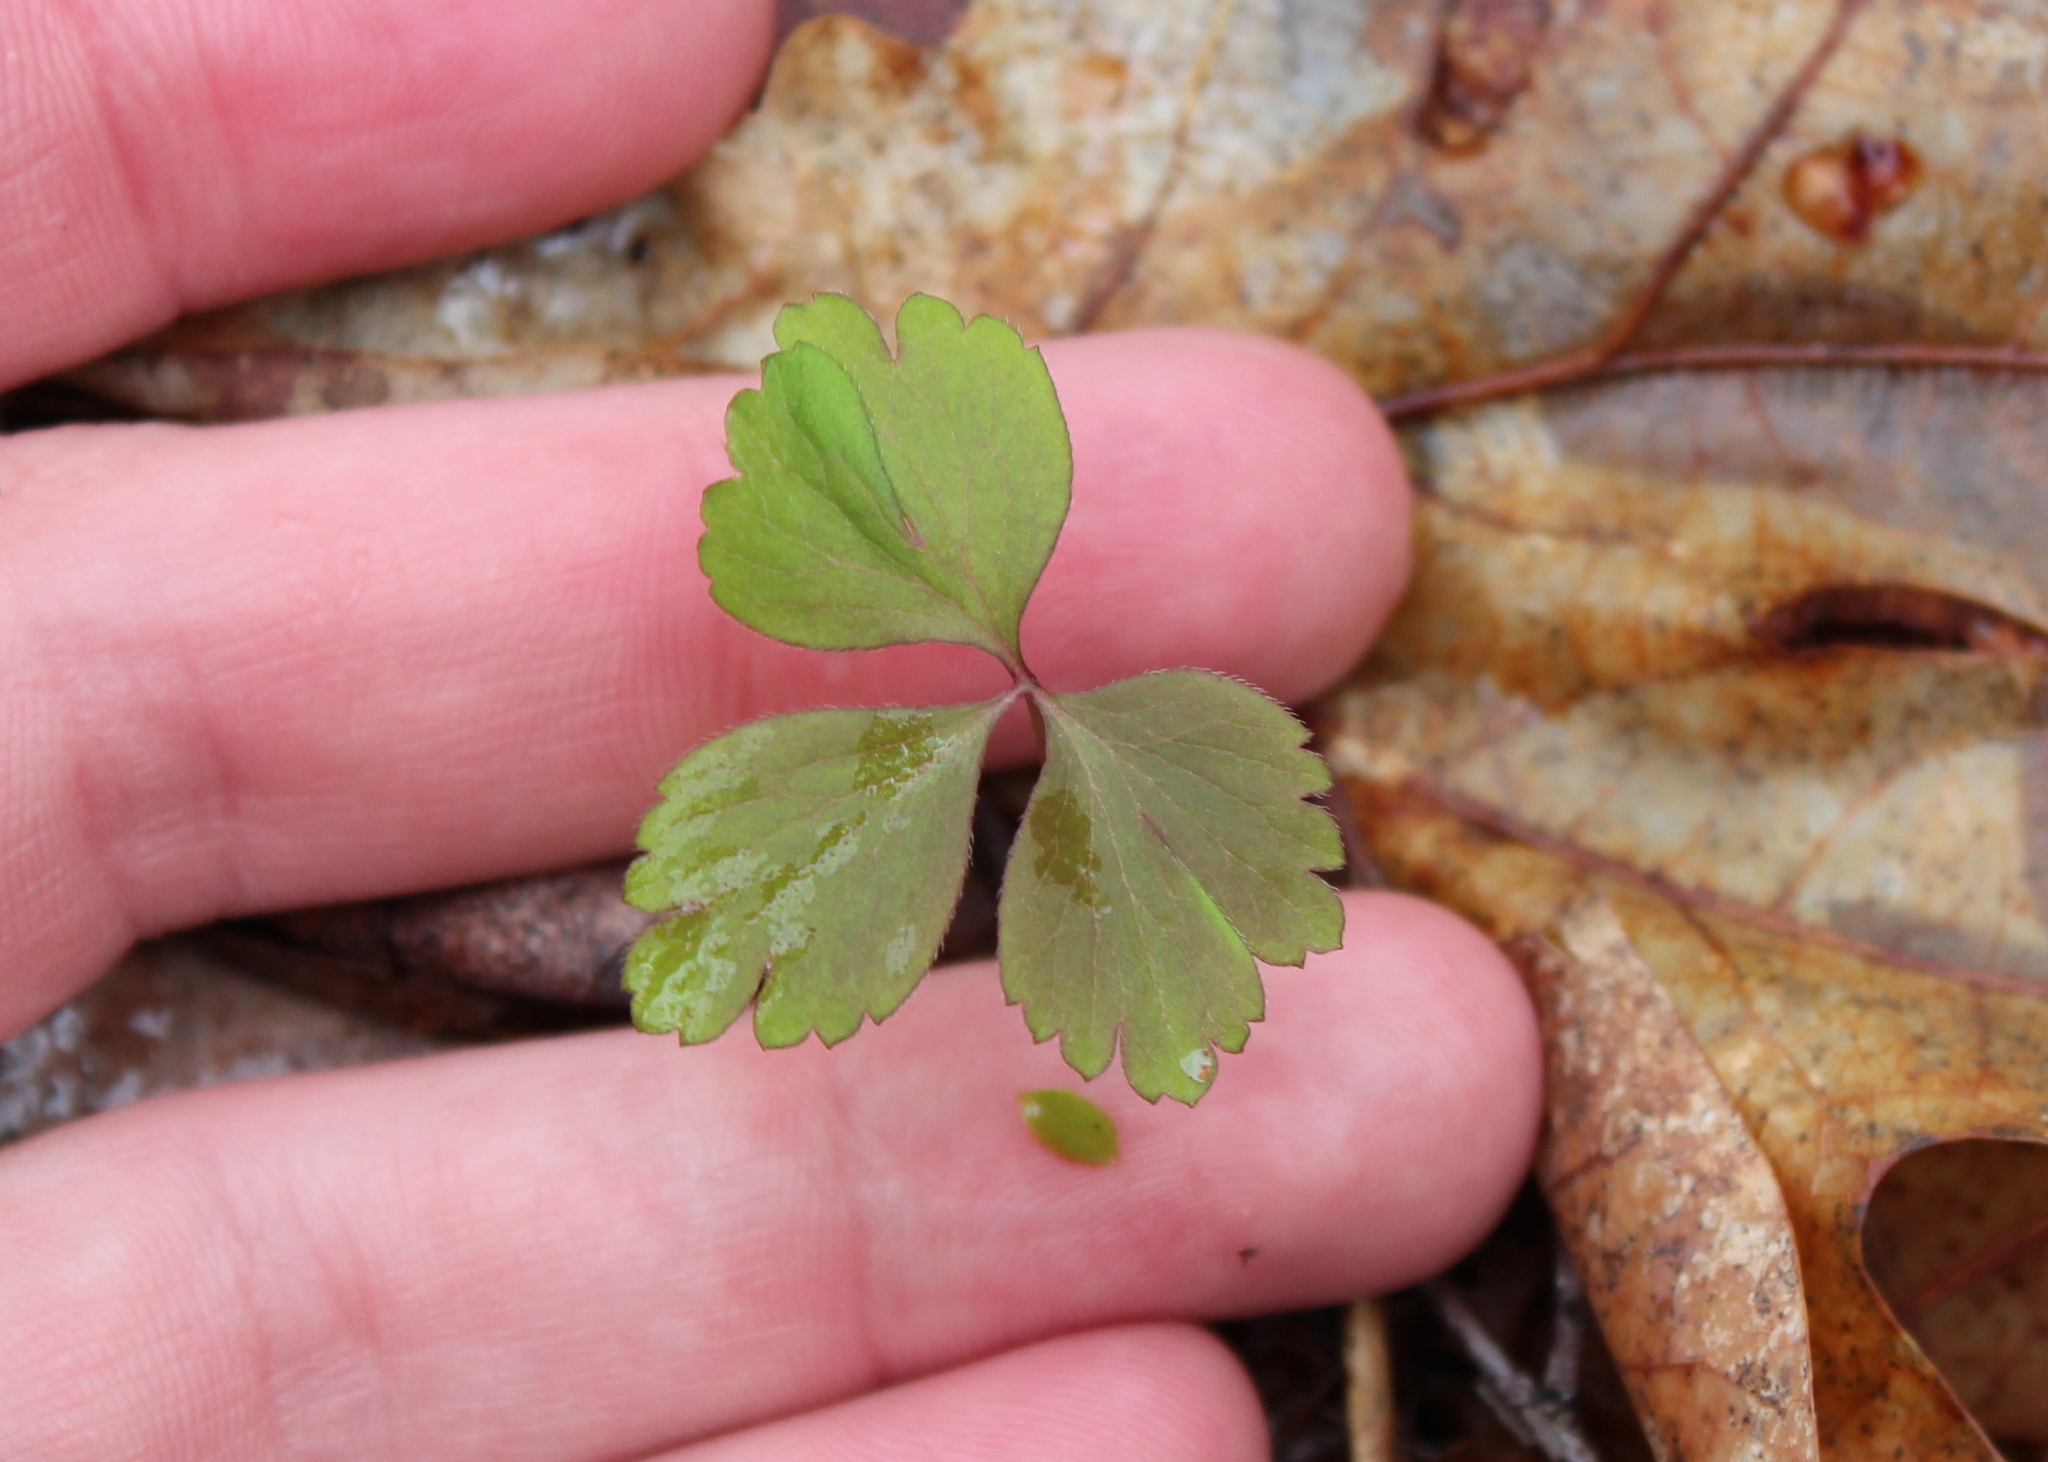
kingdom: Plantae
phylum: Tracheophyta
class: Magnoliopsida
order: Ranunculales
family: Ranunculaceae
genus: Anemone
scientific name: Anemone quinquefolia
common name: Wood anemone
